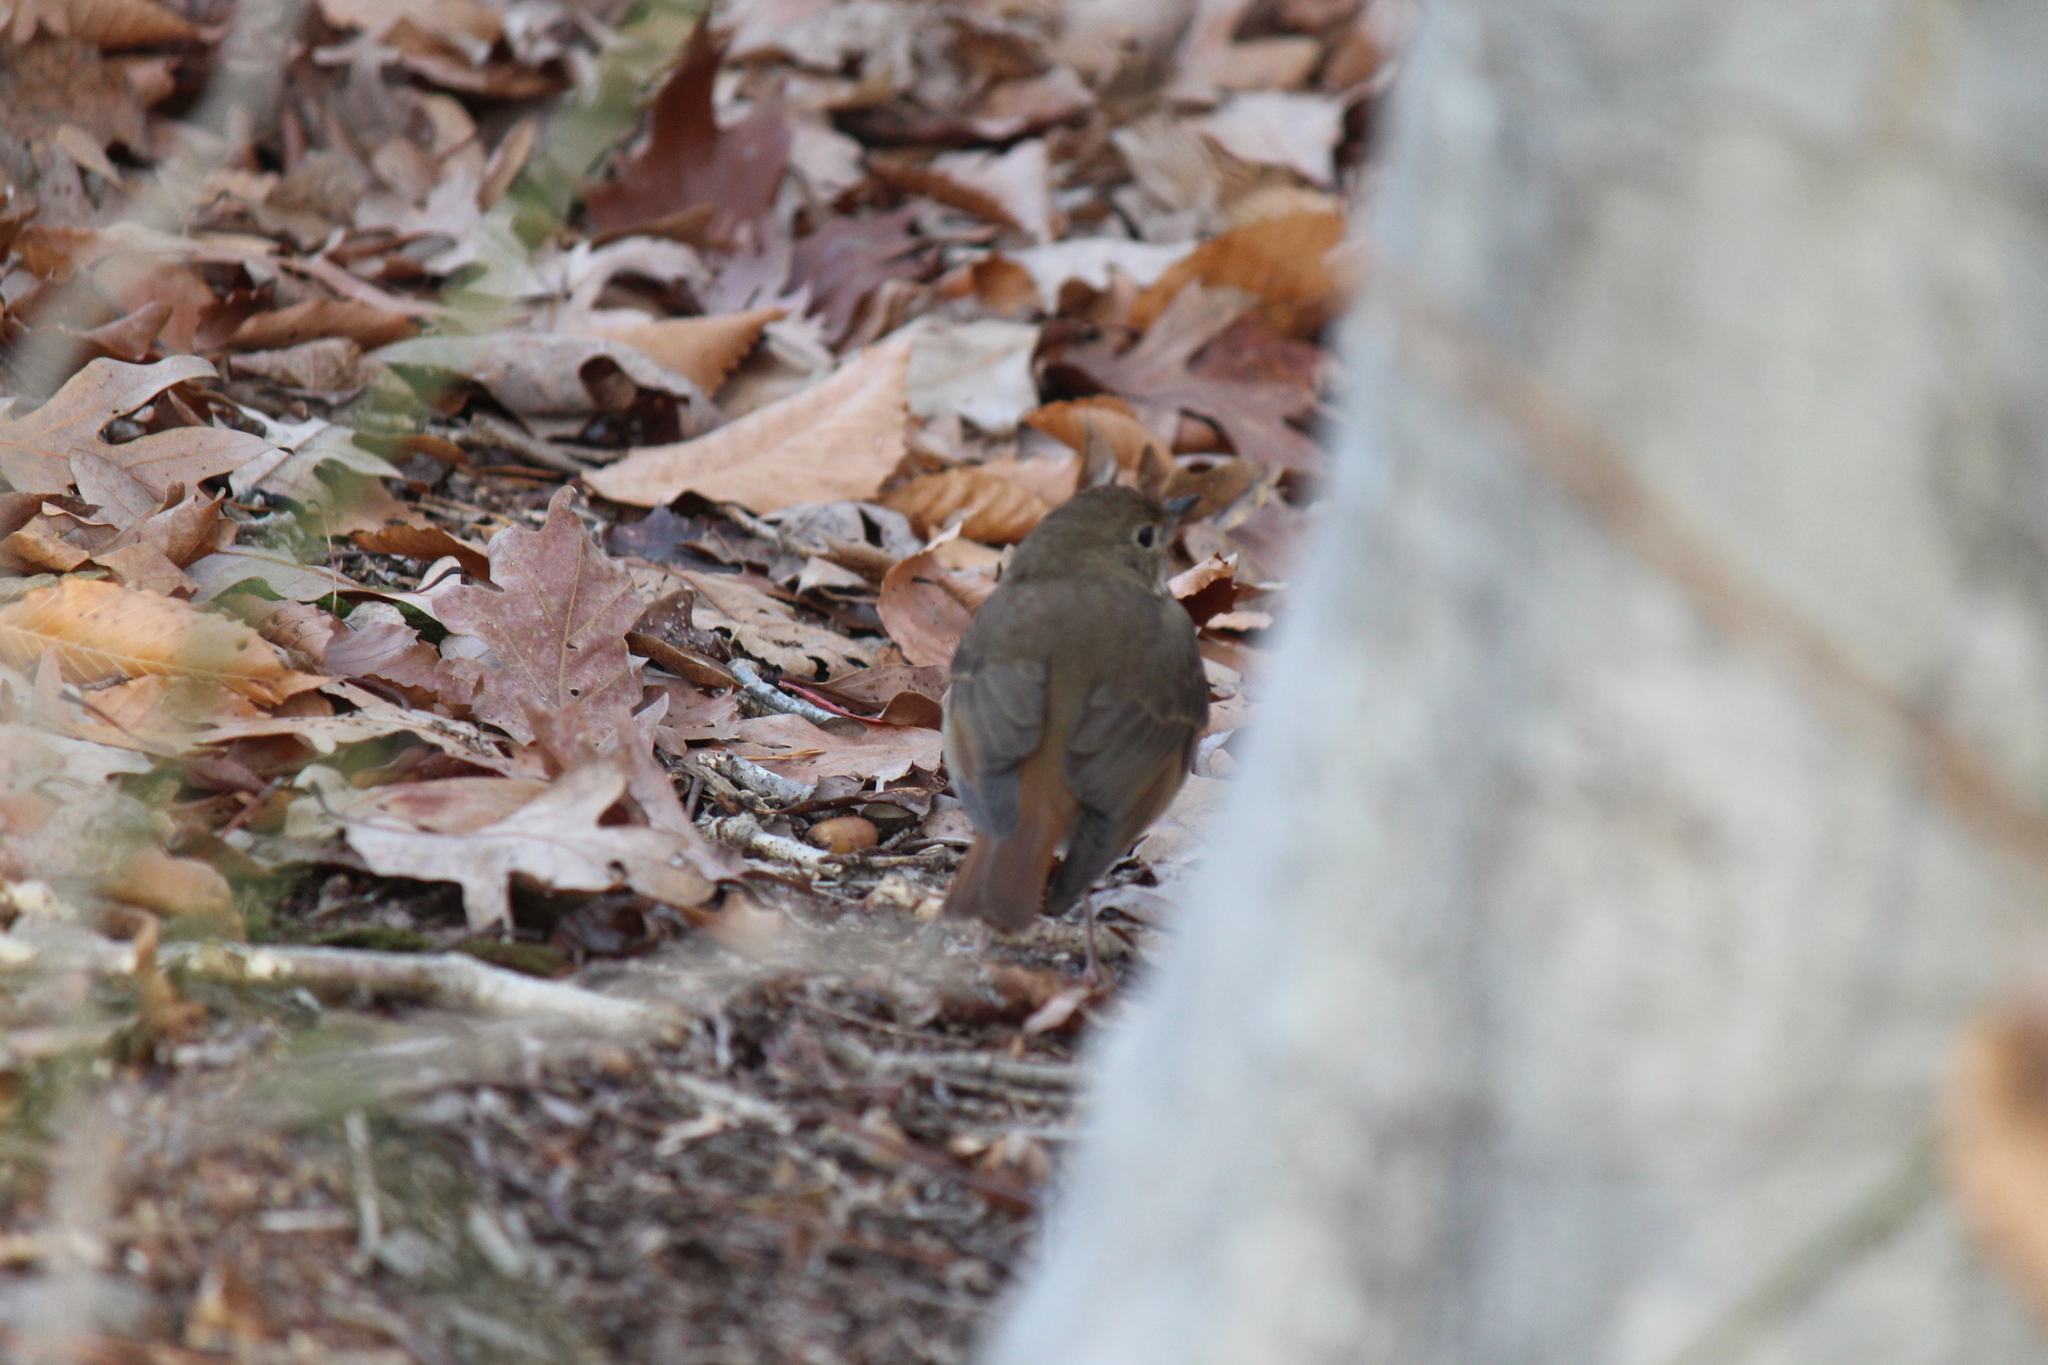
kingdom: Animalia
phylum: Chordata
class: Aves
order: Passeriformes
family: Turdidae
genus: Catharus
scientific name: Catharus guttatus
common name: Hermit thrush
